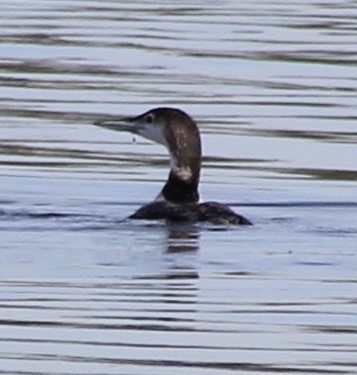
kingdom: Animalia
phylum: Chordata
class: Aves
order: Gaviiformes
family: Gaviidae
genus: Gavia
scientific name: Gavia immer
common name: Common loon
